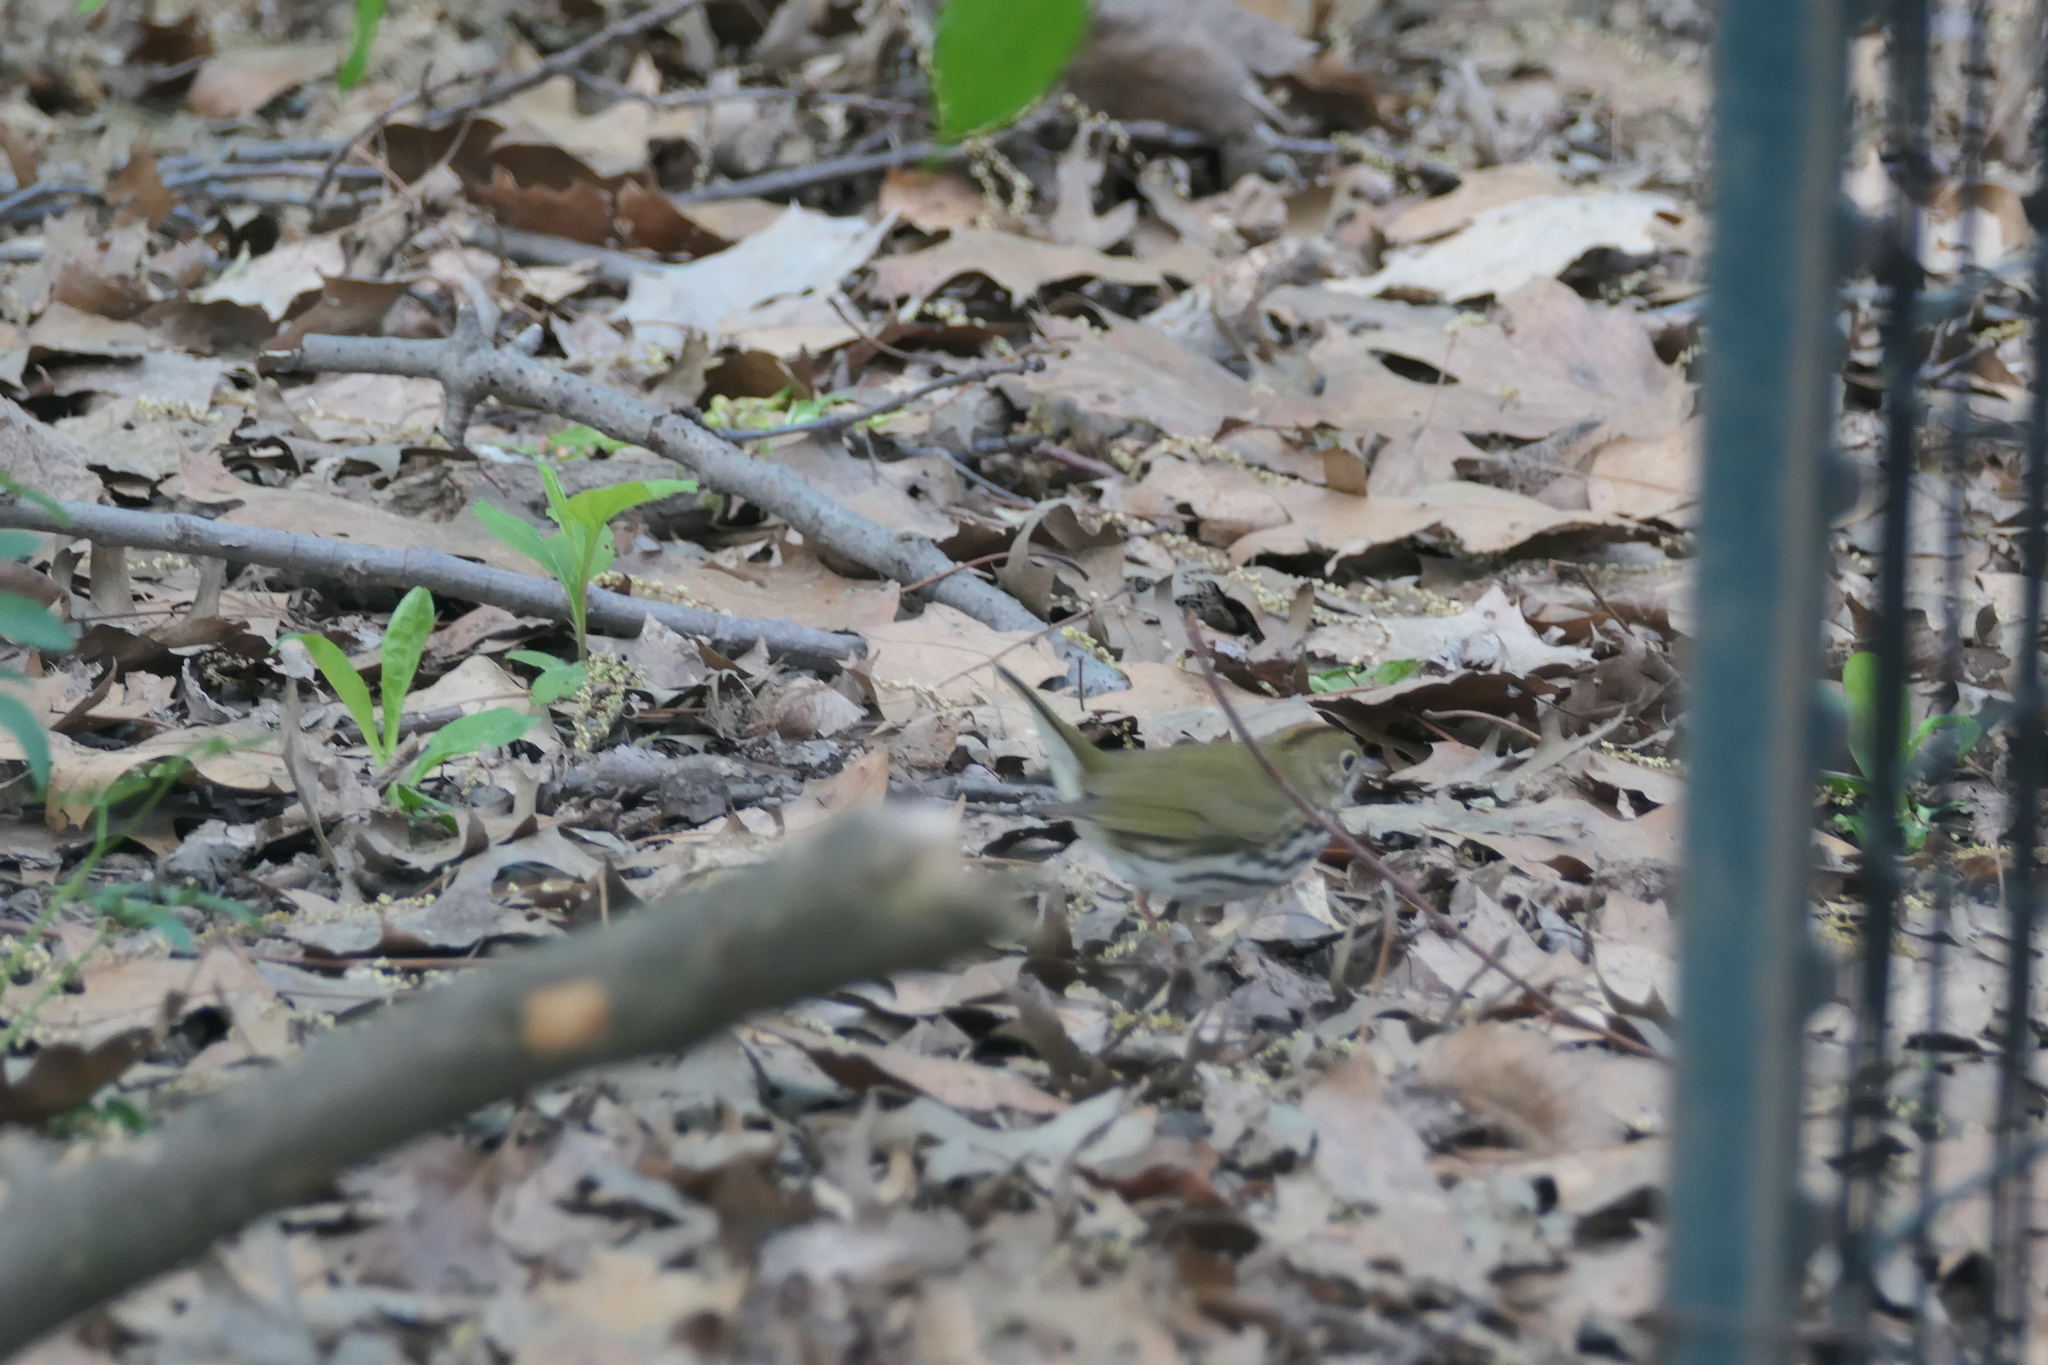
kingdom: Animalia
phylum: Chordata
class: Aves
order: Passeriformes
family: Parulidae
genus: Seiurus
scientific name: Seiurus aurocapilla
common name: Ovenbird
